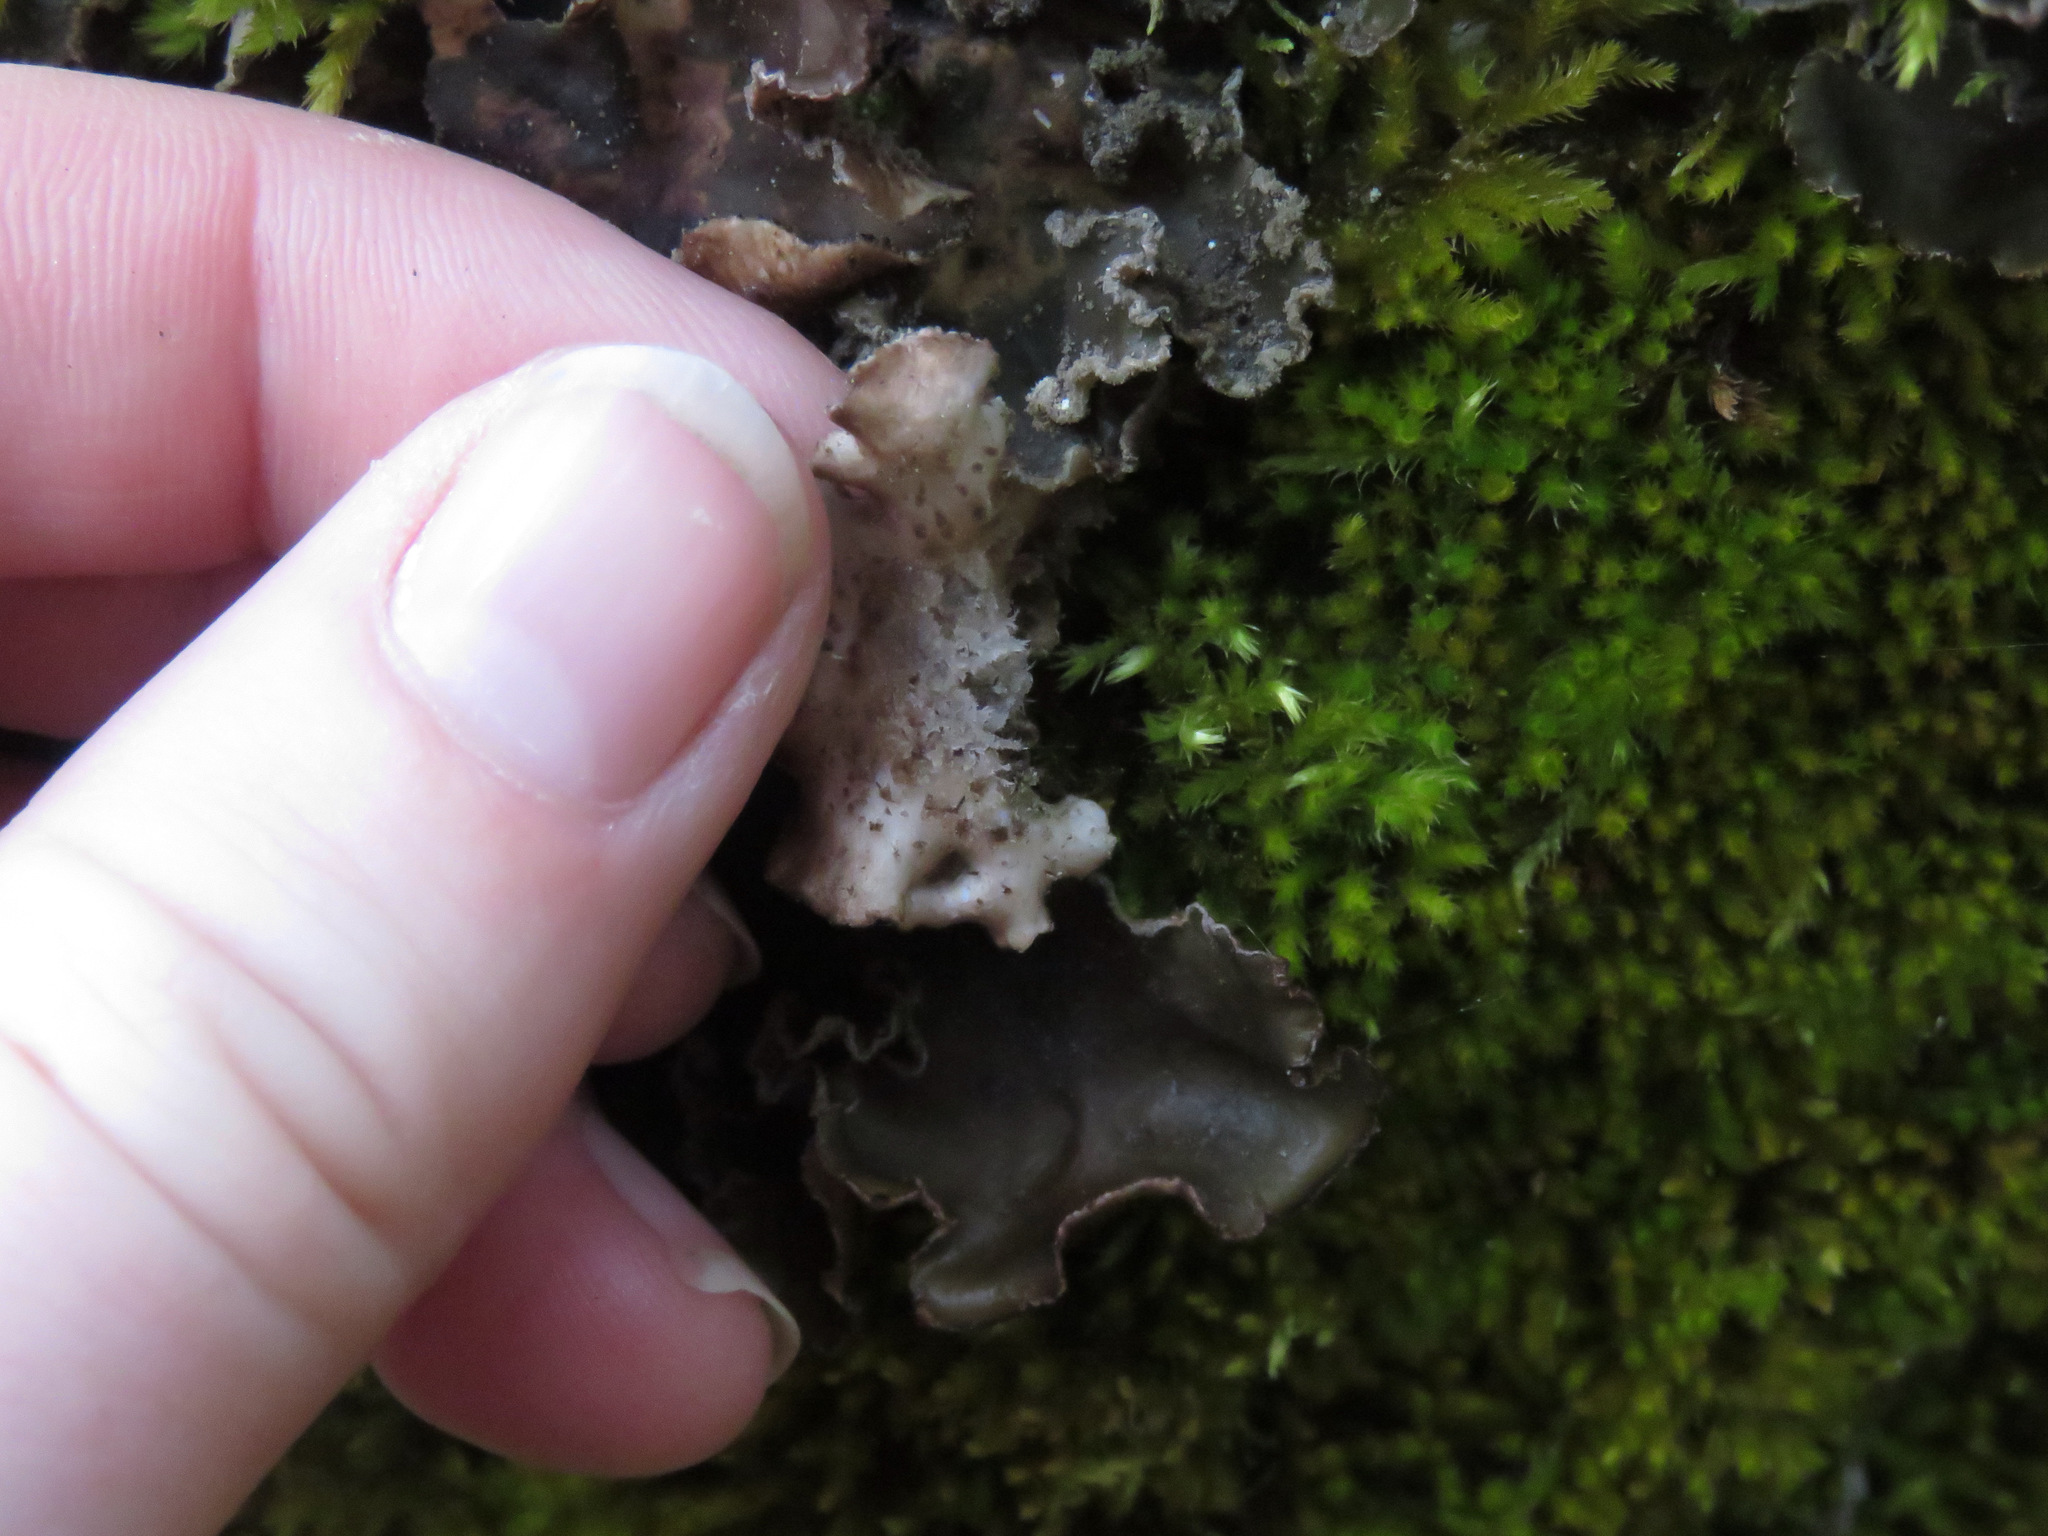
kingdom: Fungi
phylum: Ascomycota
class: Lecanoromycetes
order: Peltigerales
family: Peltigeraceae
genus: Peltigera
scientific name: Peltigera collina
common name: Gritty tree pelt lichen
